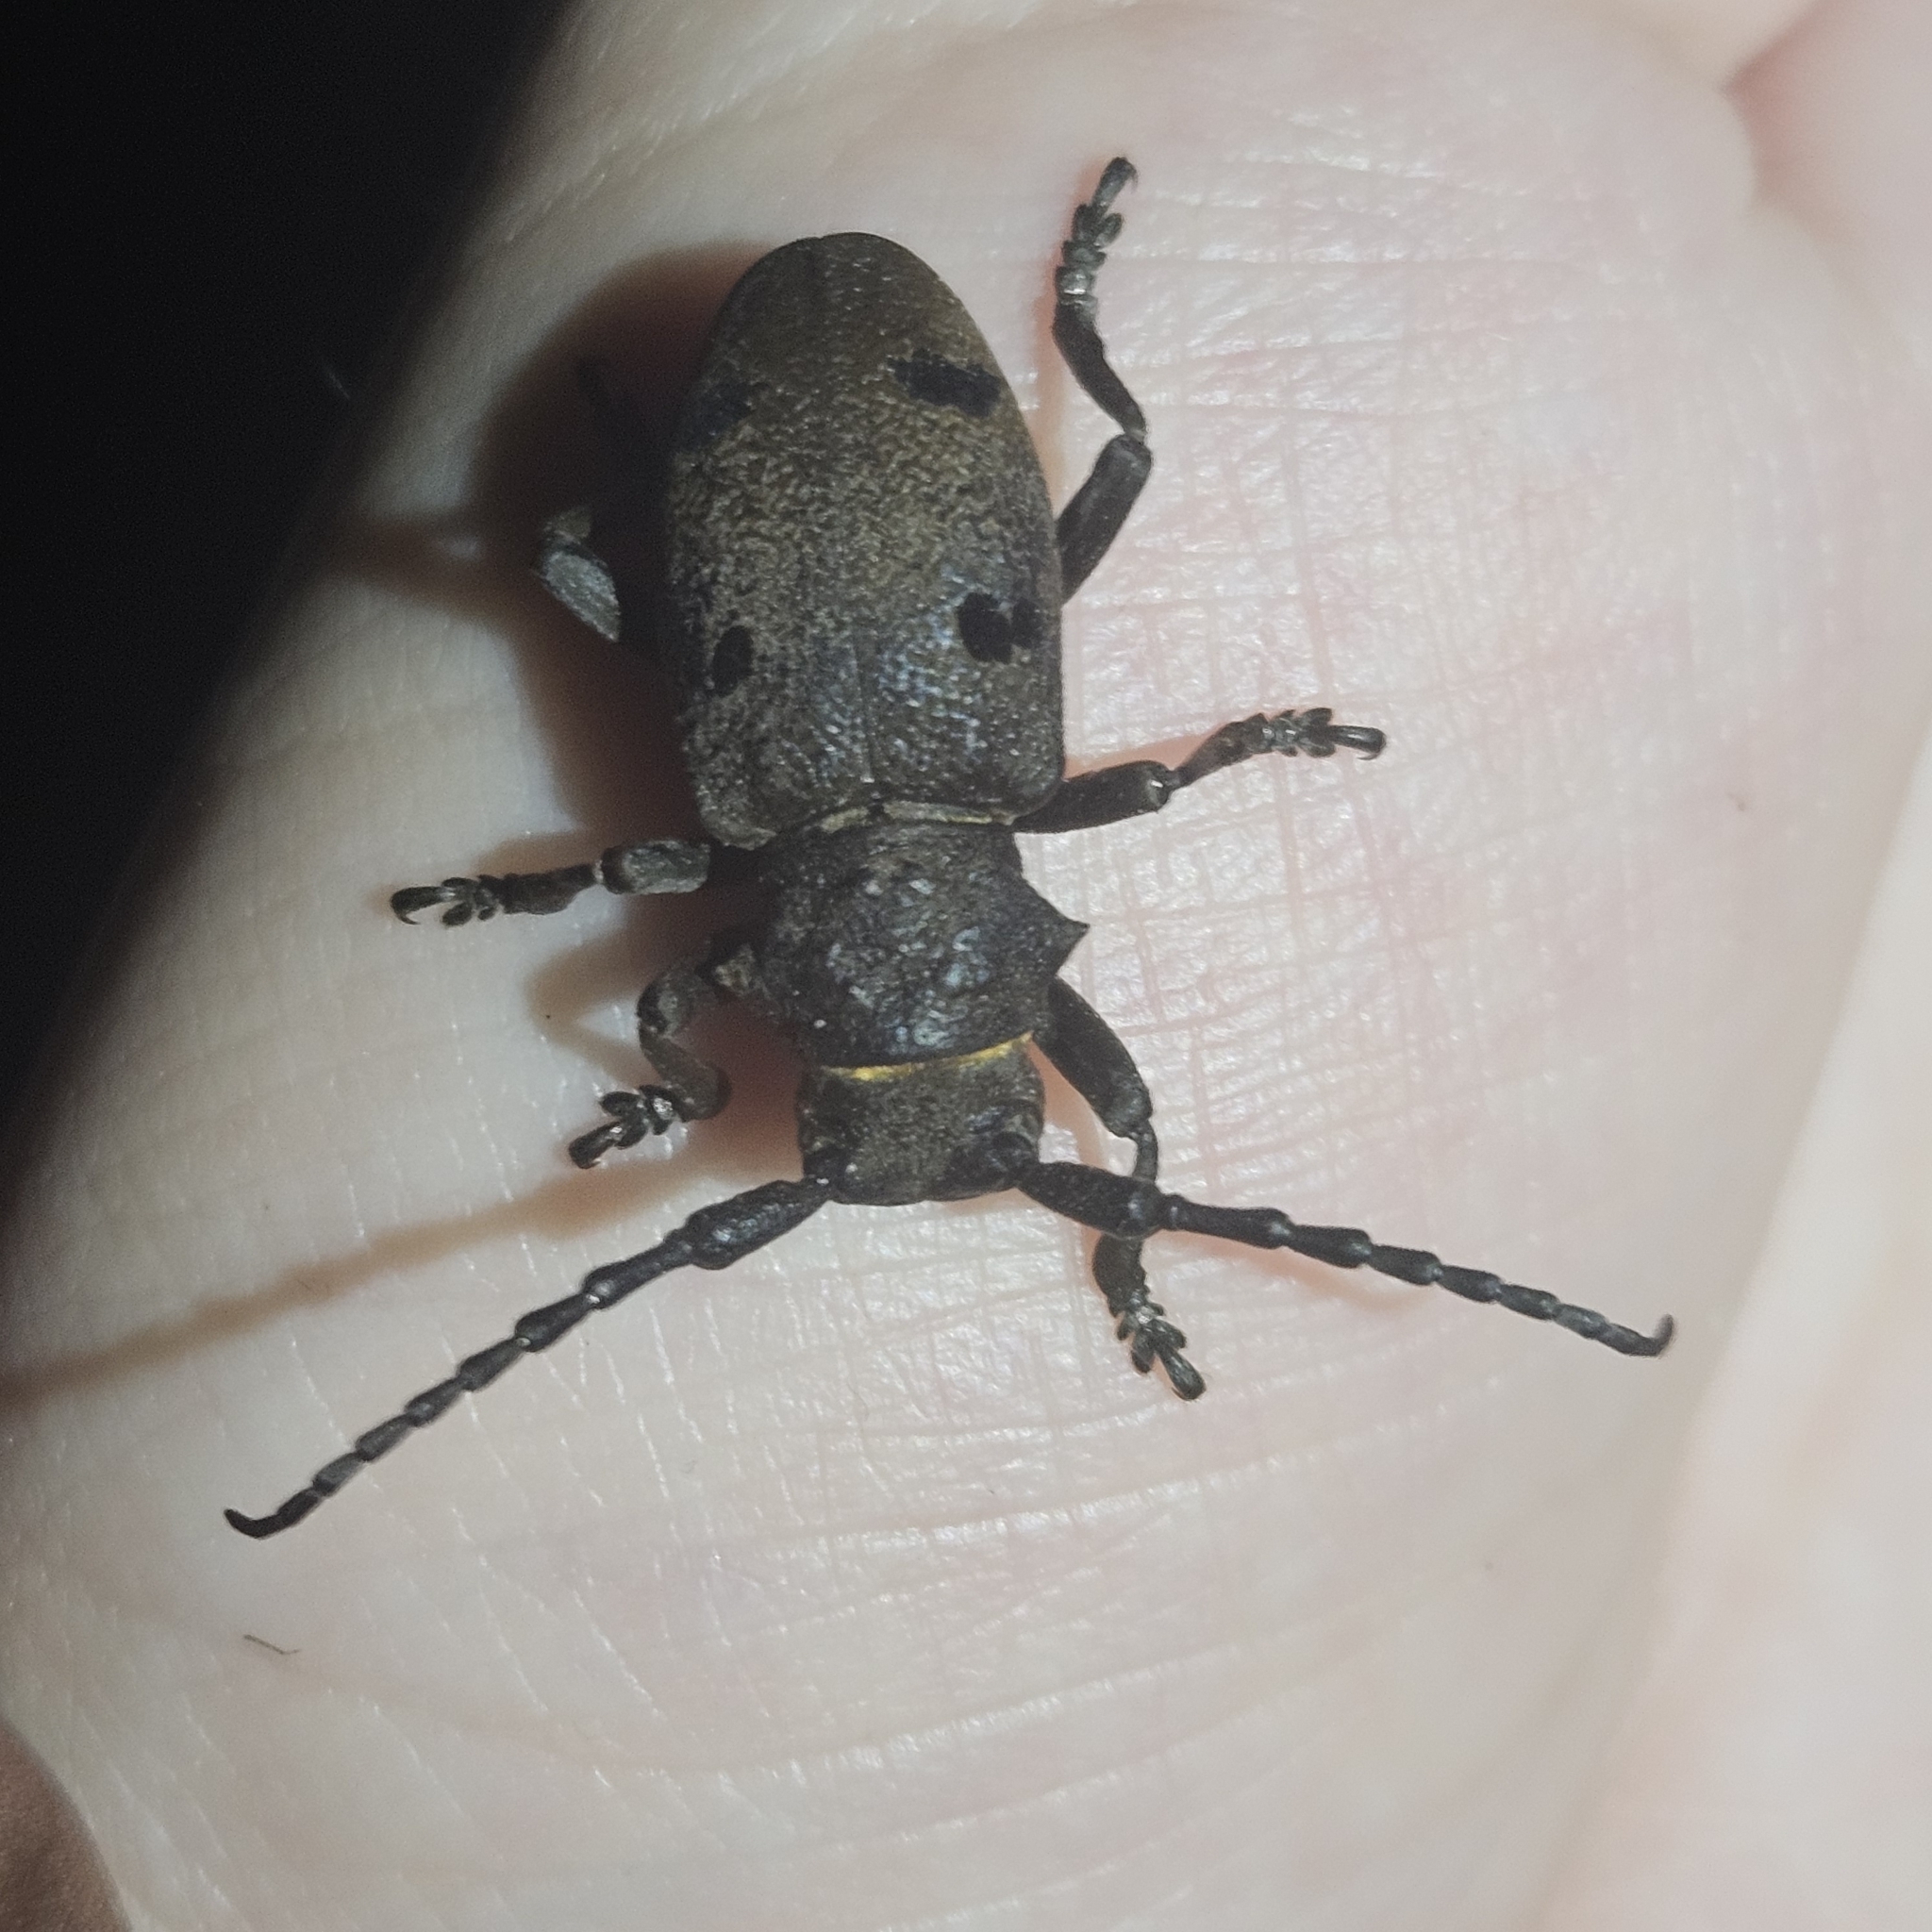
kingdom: Animalia
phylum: Arthropoda
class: Insecta
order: Coleoptera
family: Cerambycidae
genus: Herophila
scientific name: Herophila tristis
